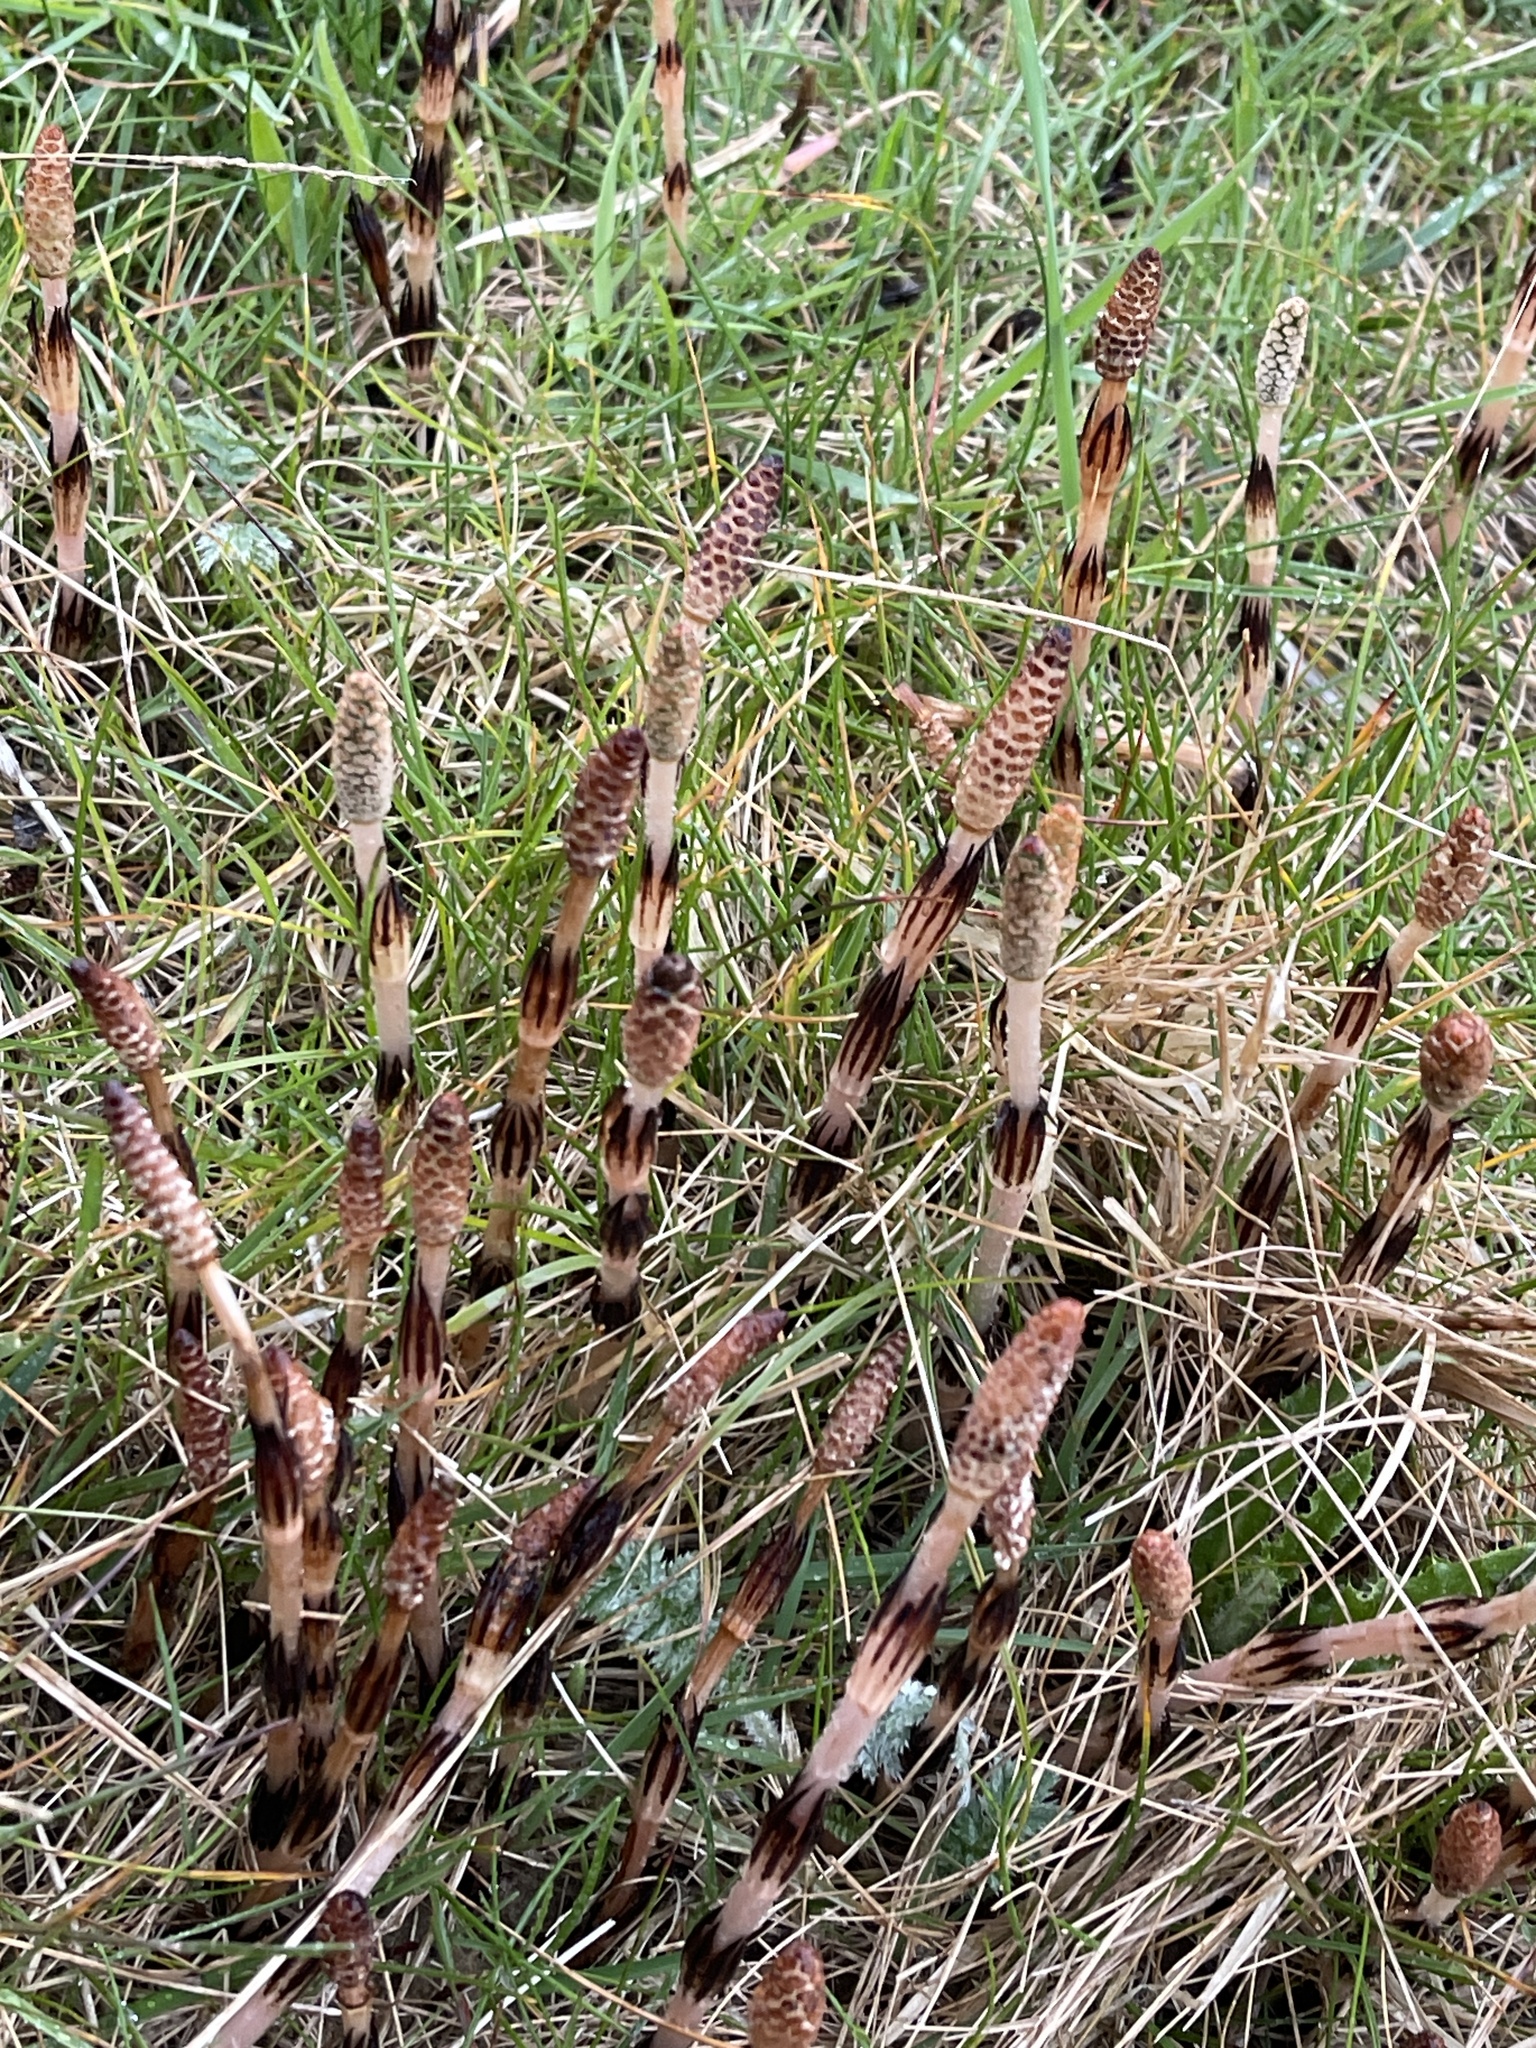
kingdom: Plantae
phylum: Tracheophyta
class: Polypodiopsida
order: Equisetales
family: Equisetaceae
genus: Equisetum
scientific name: Equisetum arvense
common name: Field horsetail
